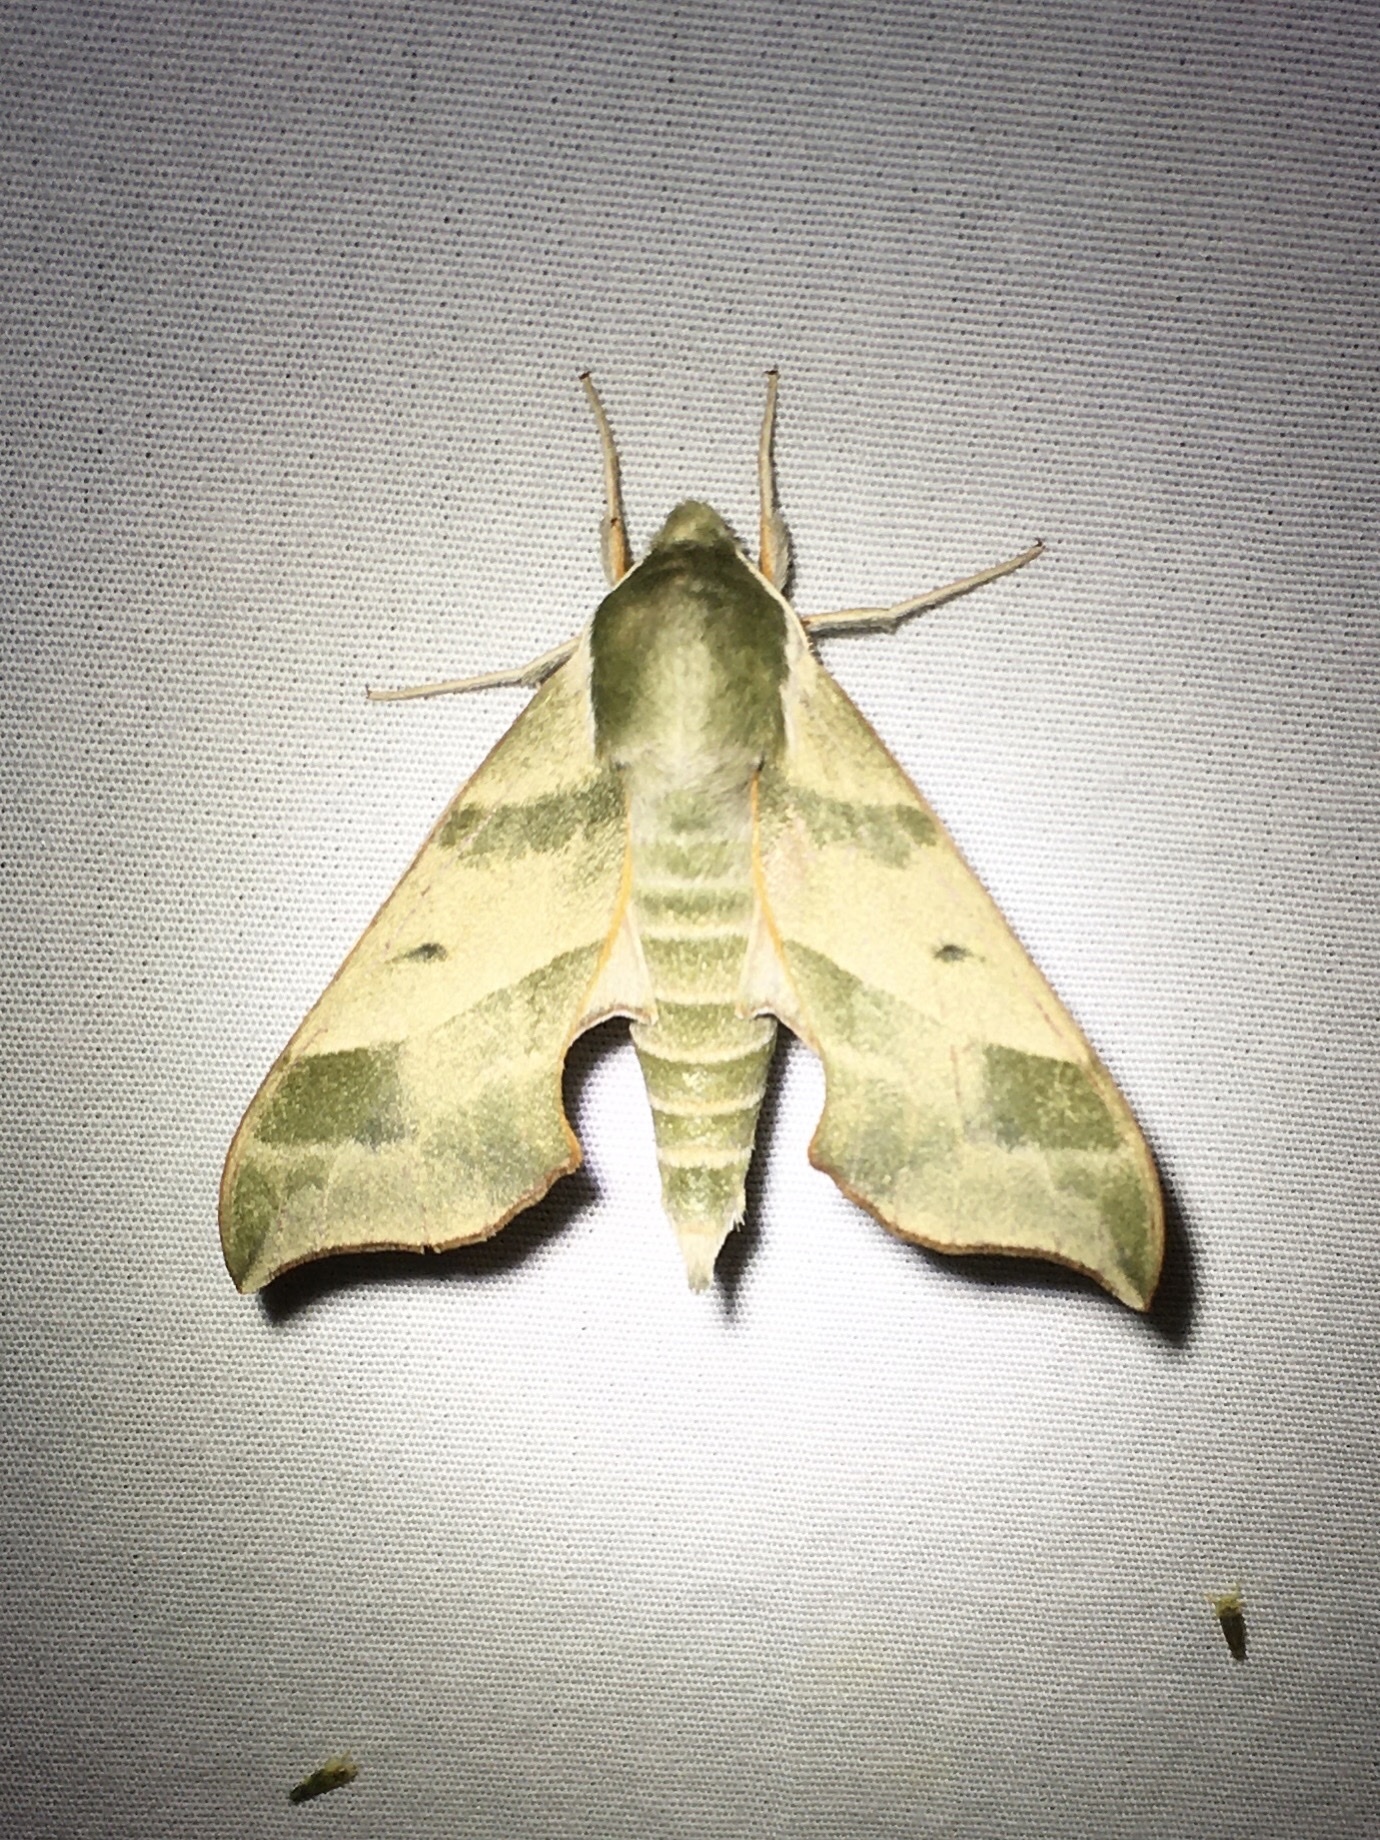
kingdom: Animalia
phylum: Arthropoda
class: Insecta
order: Lepidoptera
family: Sphingidae
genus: Darapsa
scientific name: Darapsa myron
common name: Hog sphinx
